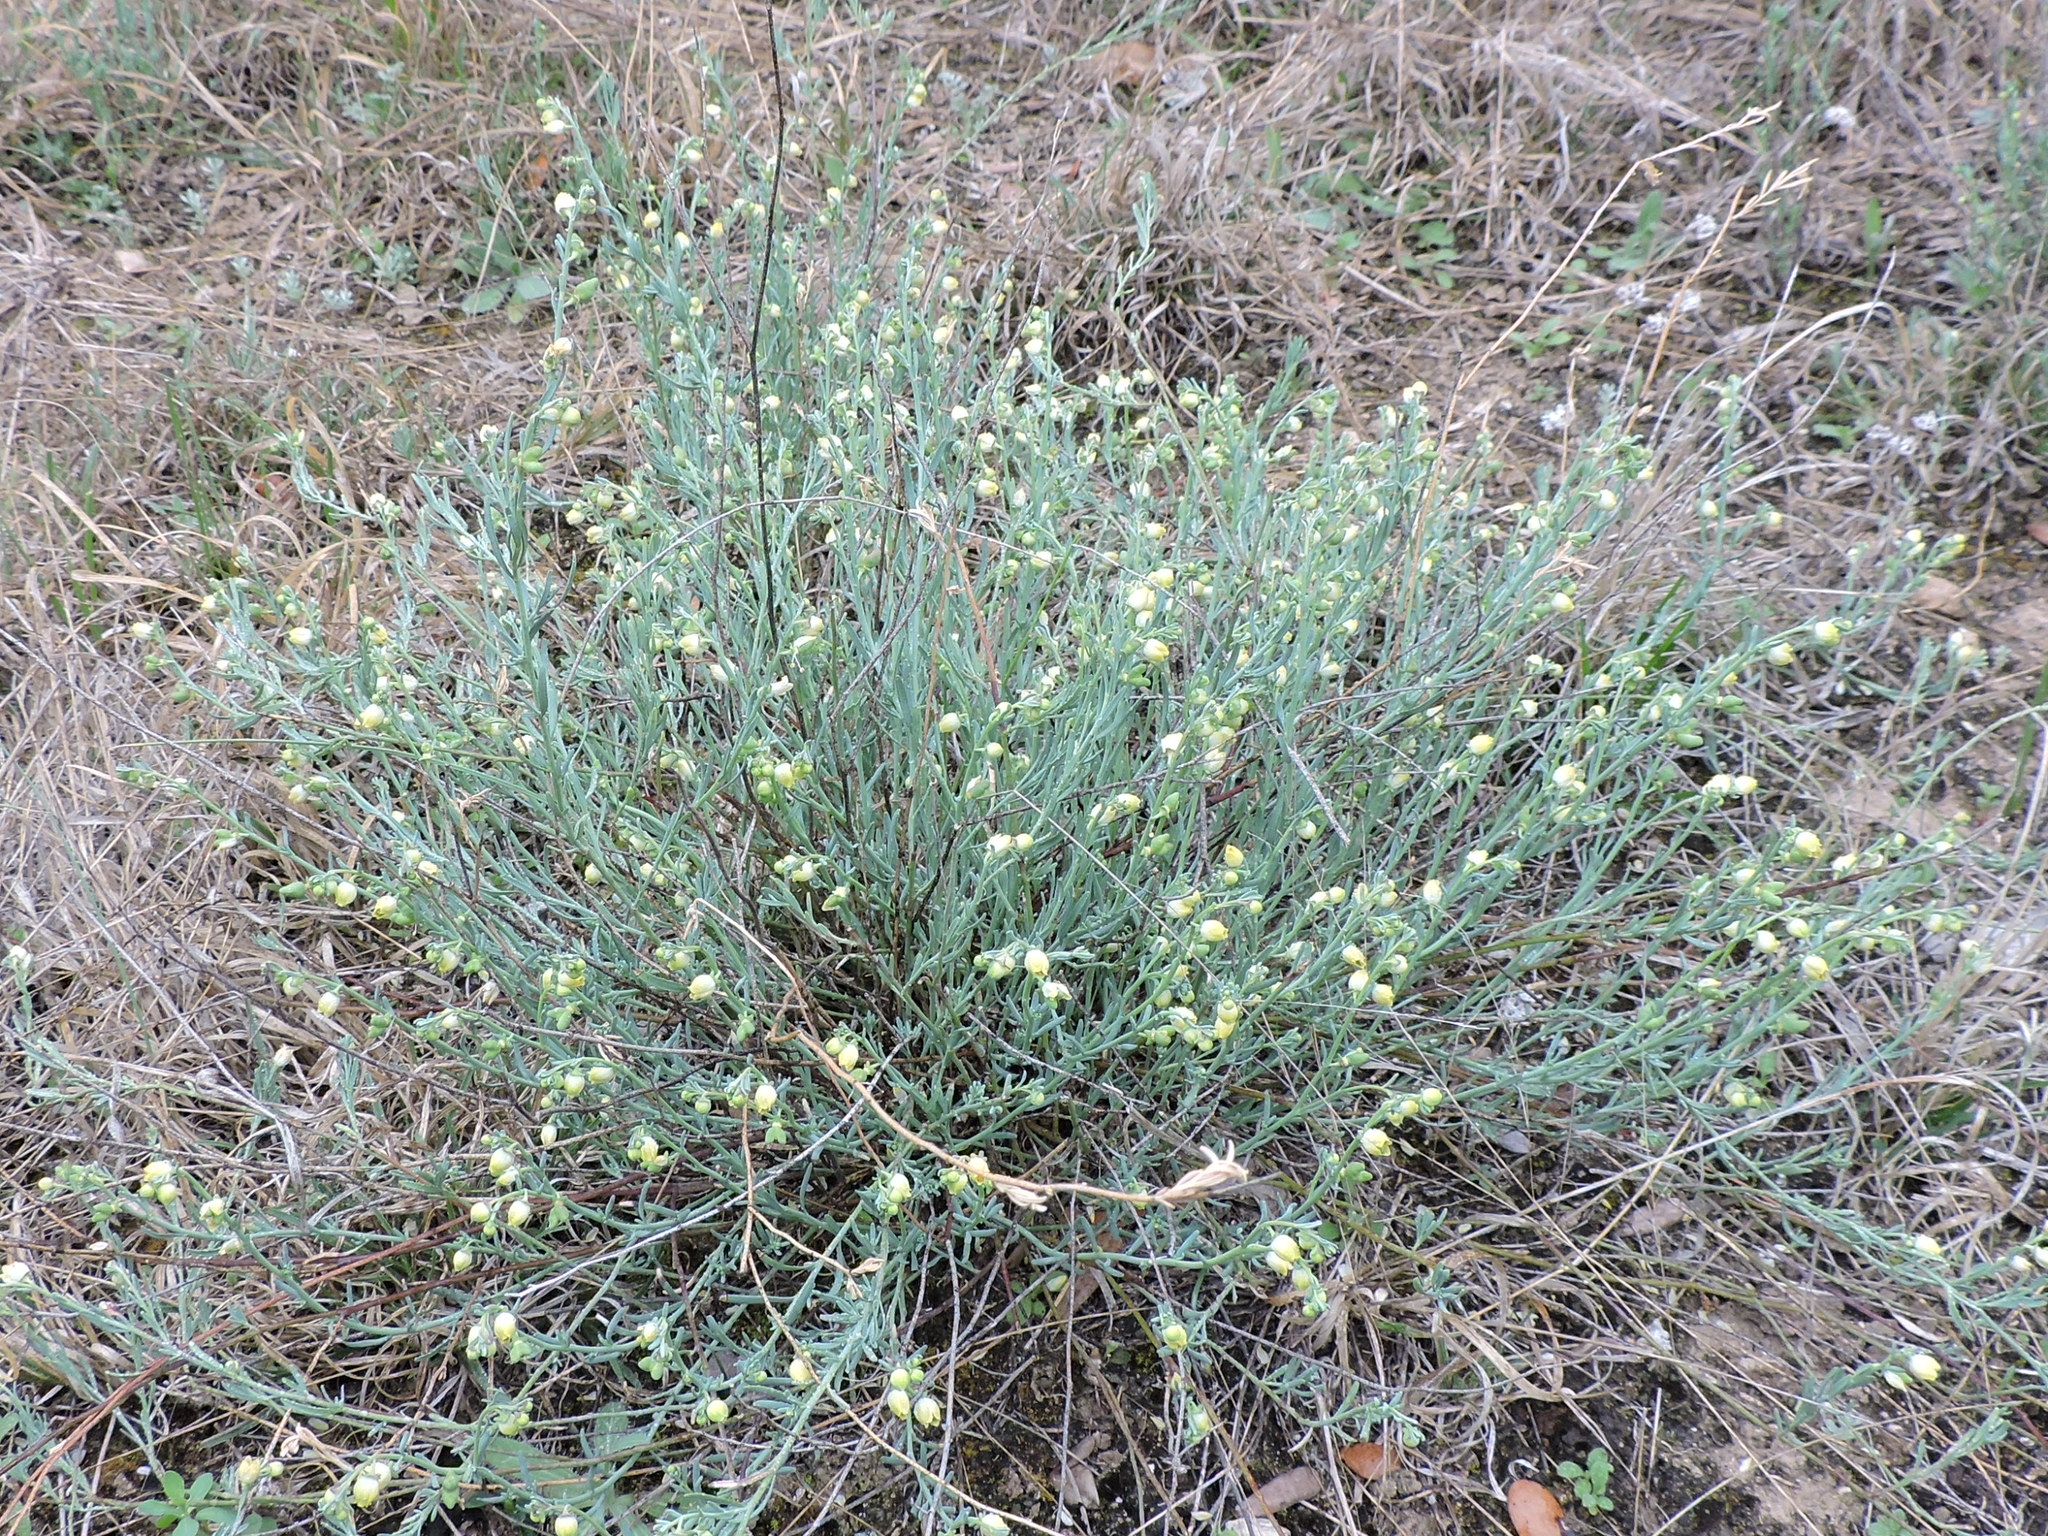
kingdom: Plantae
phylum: Tracheophyta
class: Magnoliopsida
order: Sapindales
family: Rutaceae
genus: Thamnosma
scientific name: Thamnosma texana
